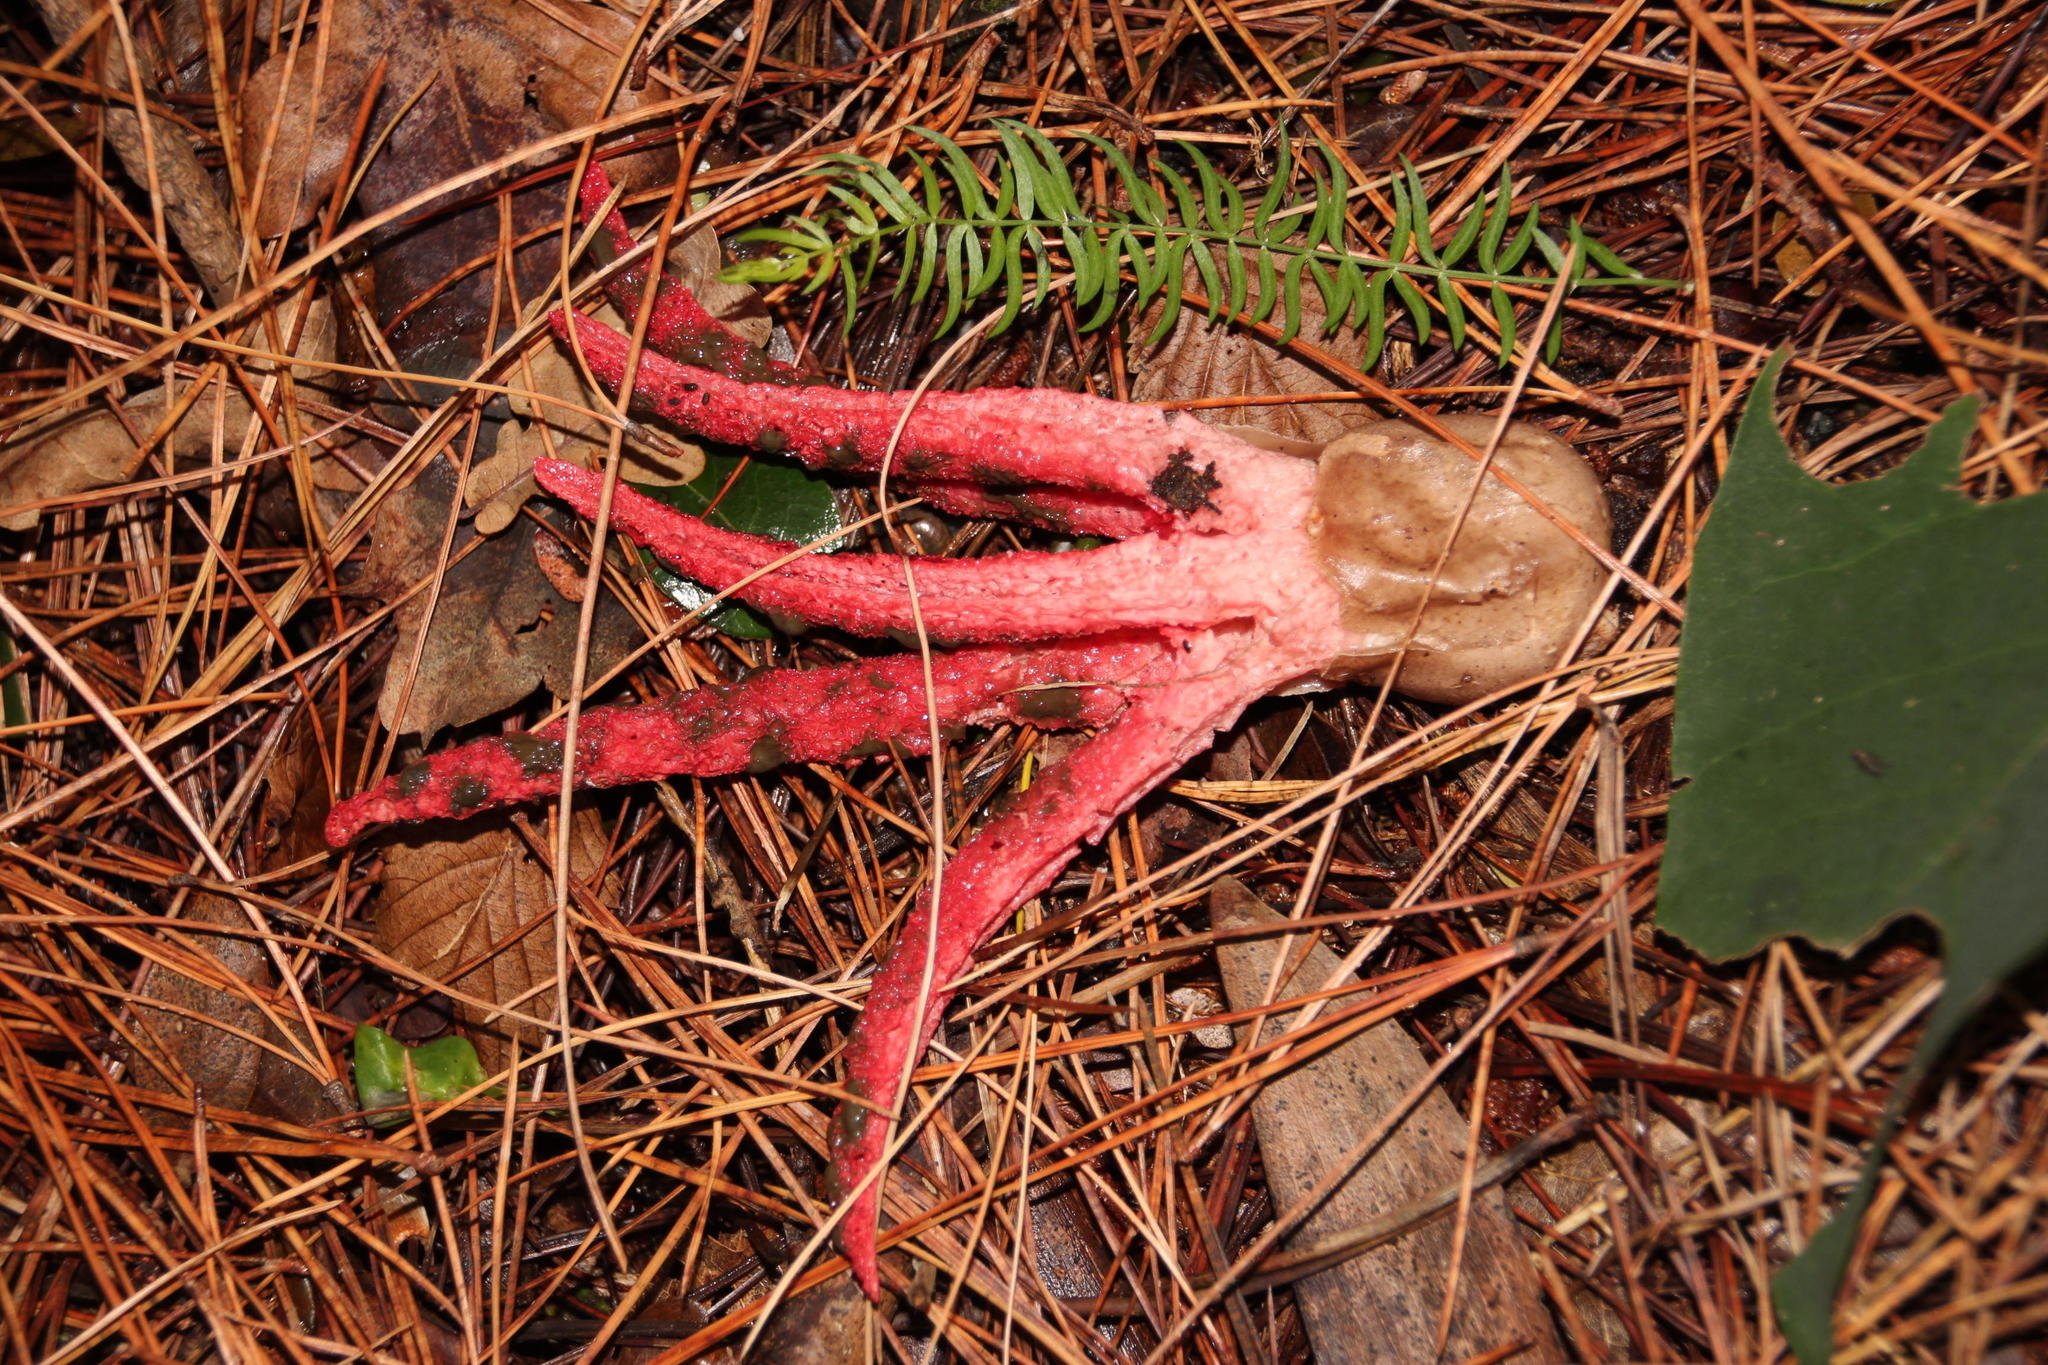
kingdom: Fungi
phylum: Basidiomycota
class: Agaricomycetes
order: Phallales
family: Phallaceae
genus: Clathrus
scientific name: Clathrus archeri
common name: Devil's fingers
